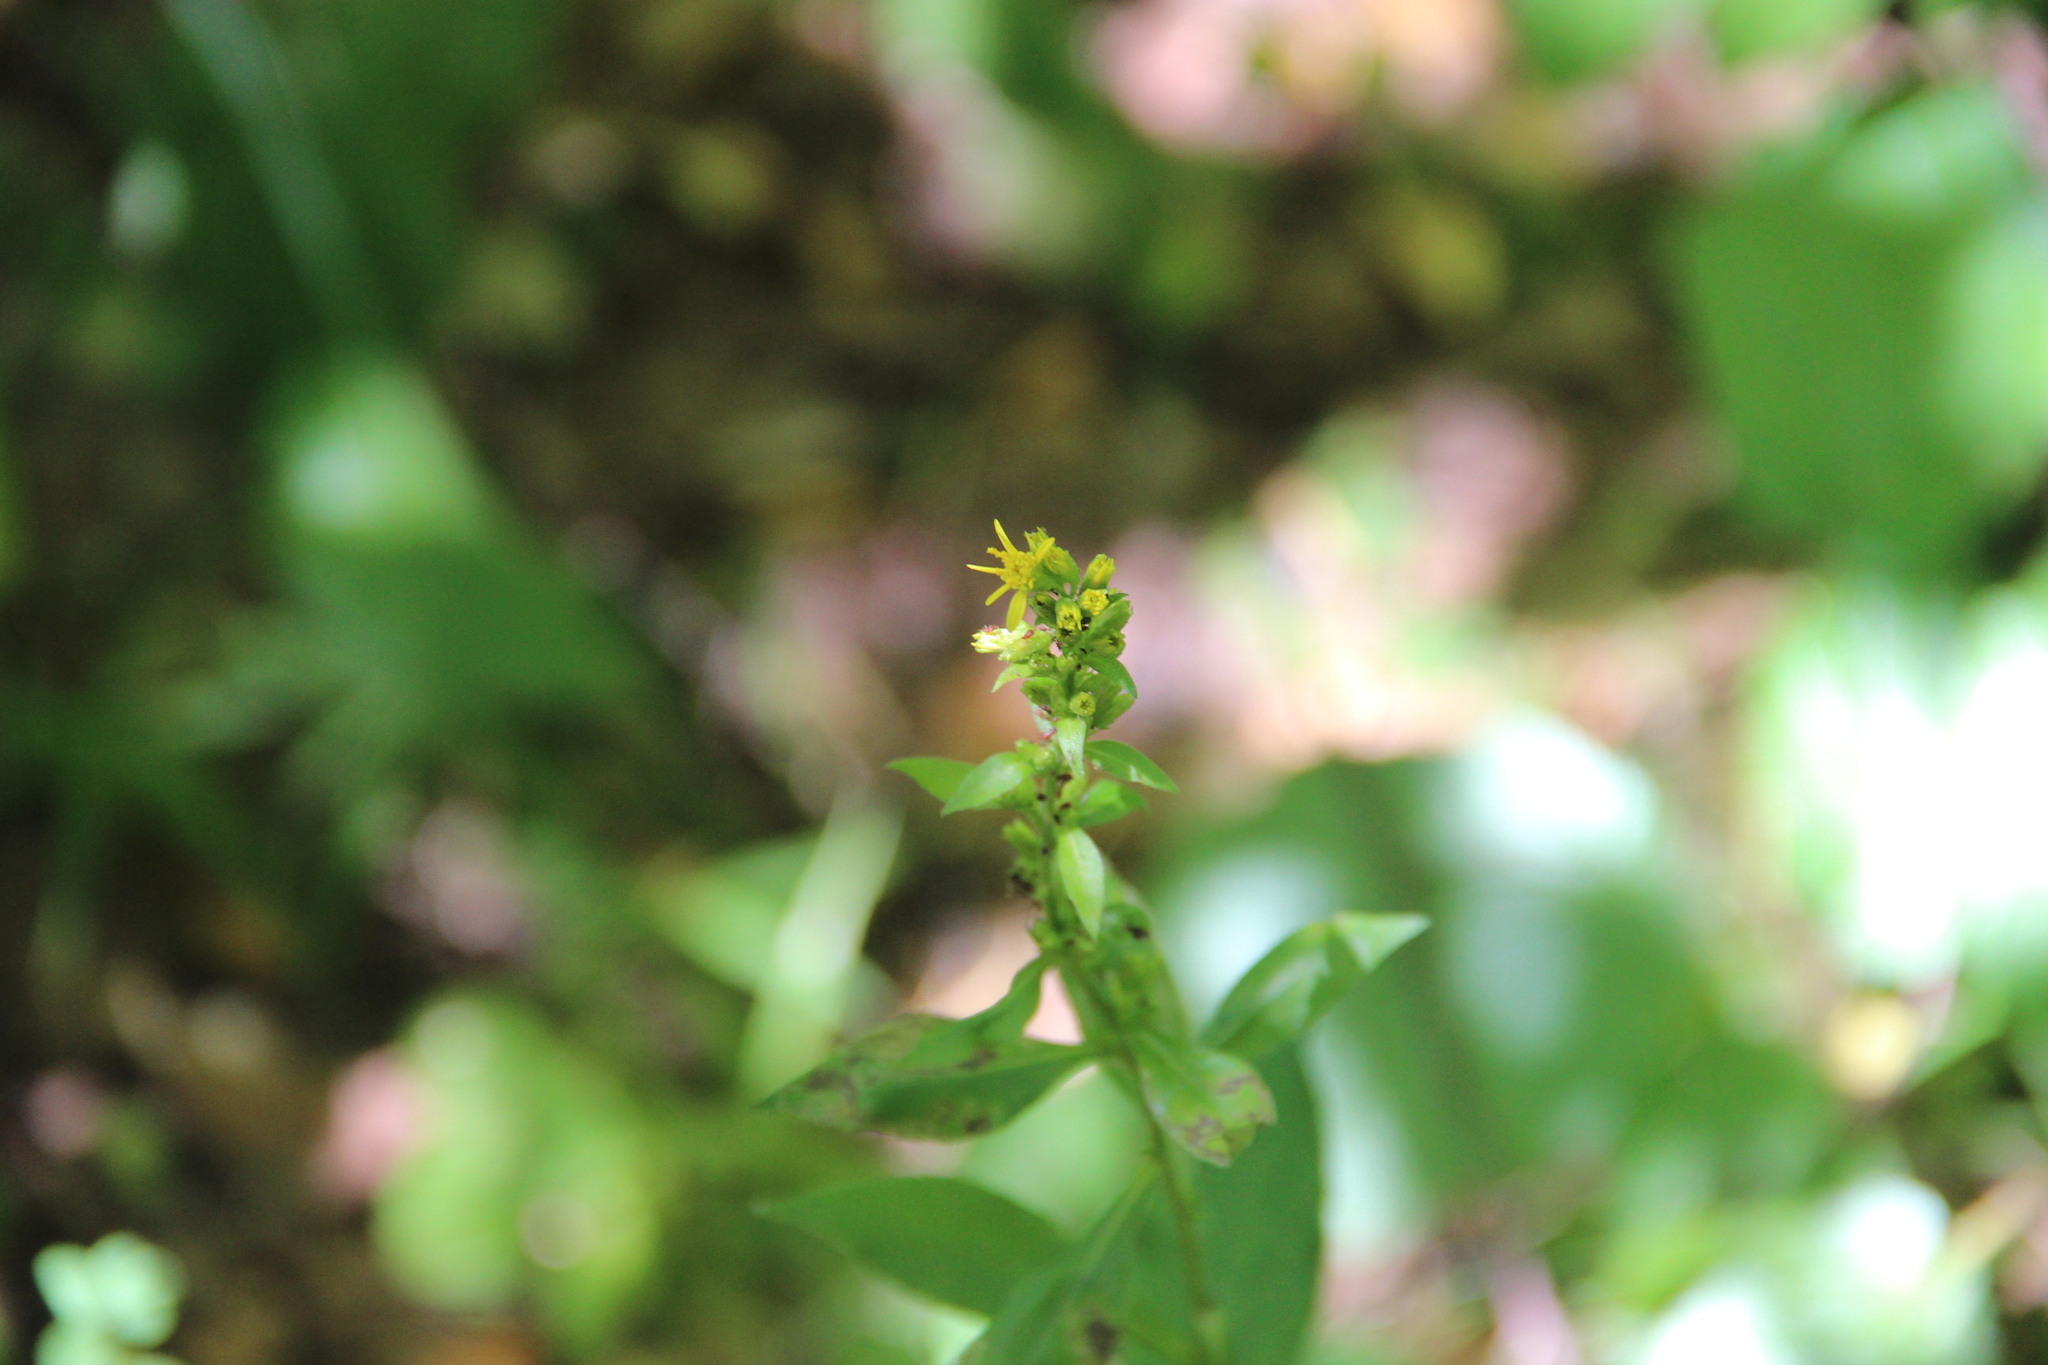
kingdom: Plantae
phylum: Tracheophyta
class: Magnoliopsida
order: Asterales
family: Asteraceae
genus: Solidago
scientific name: Solidago virgaurea
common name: Goldenrod
